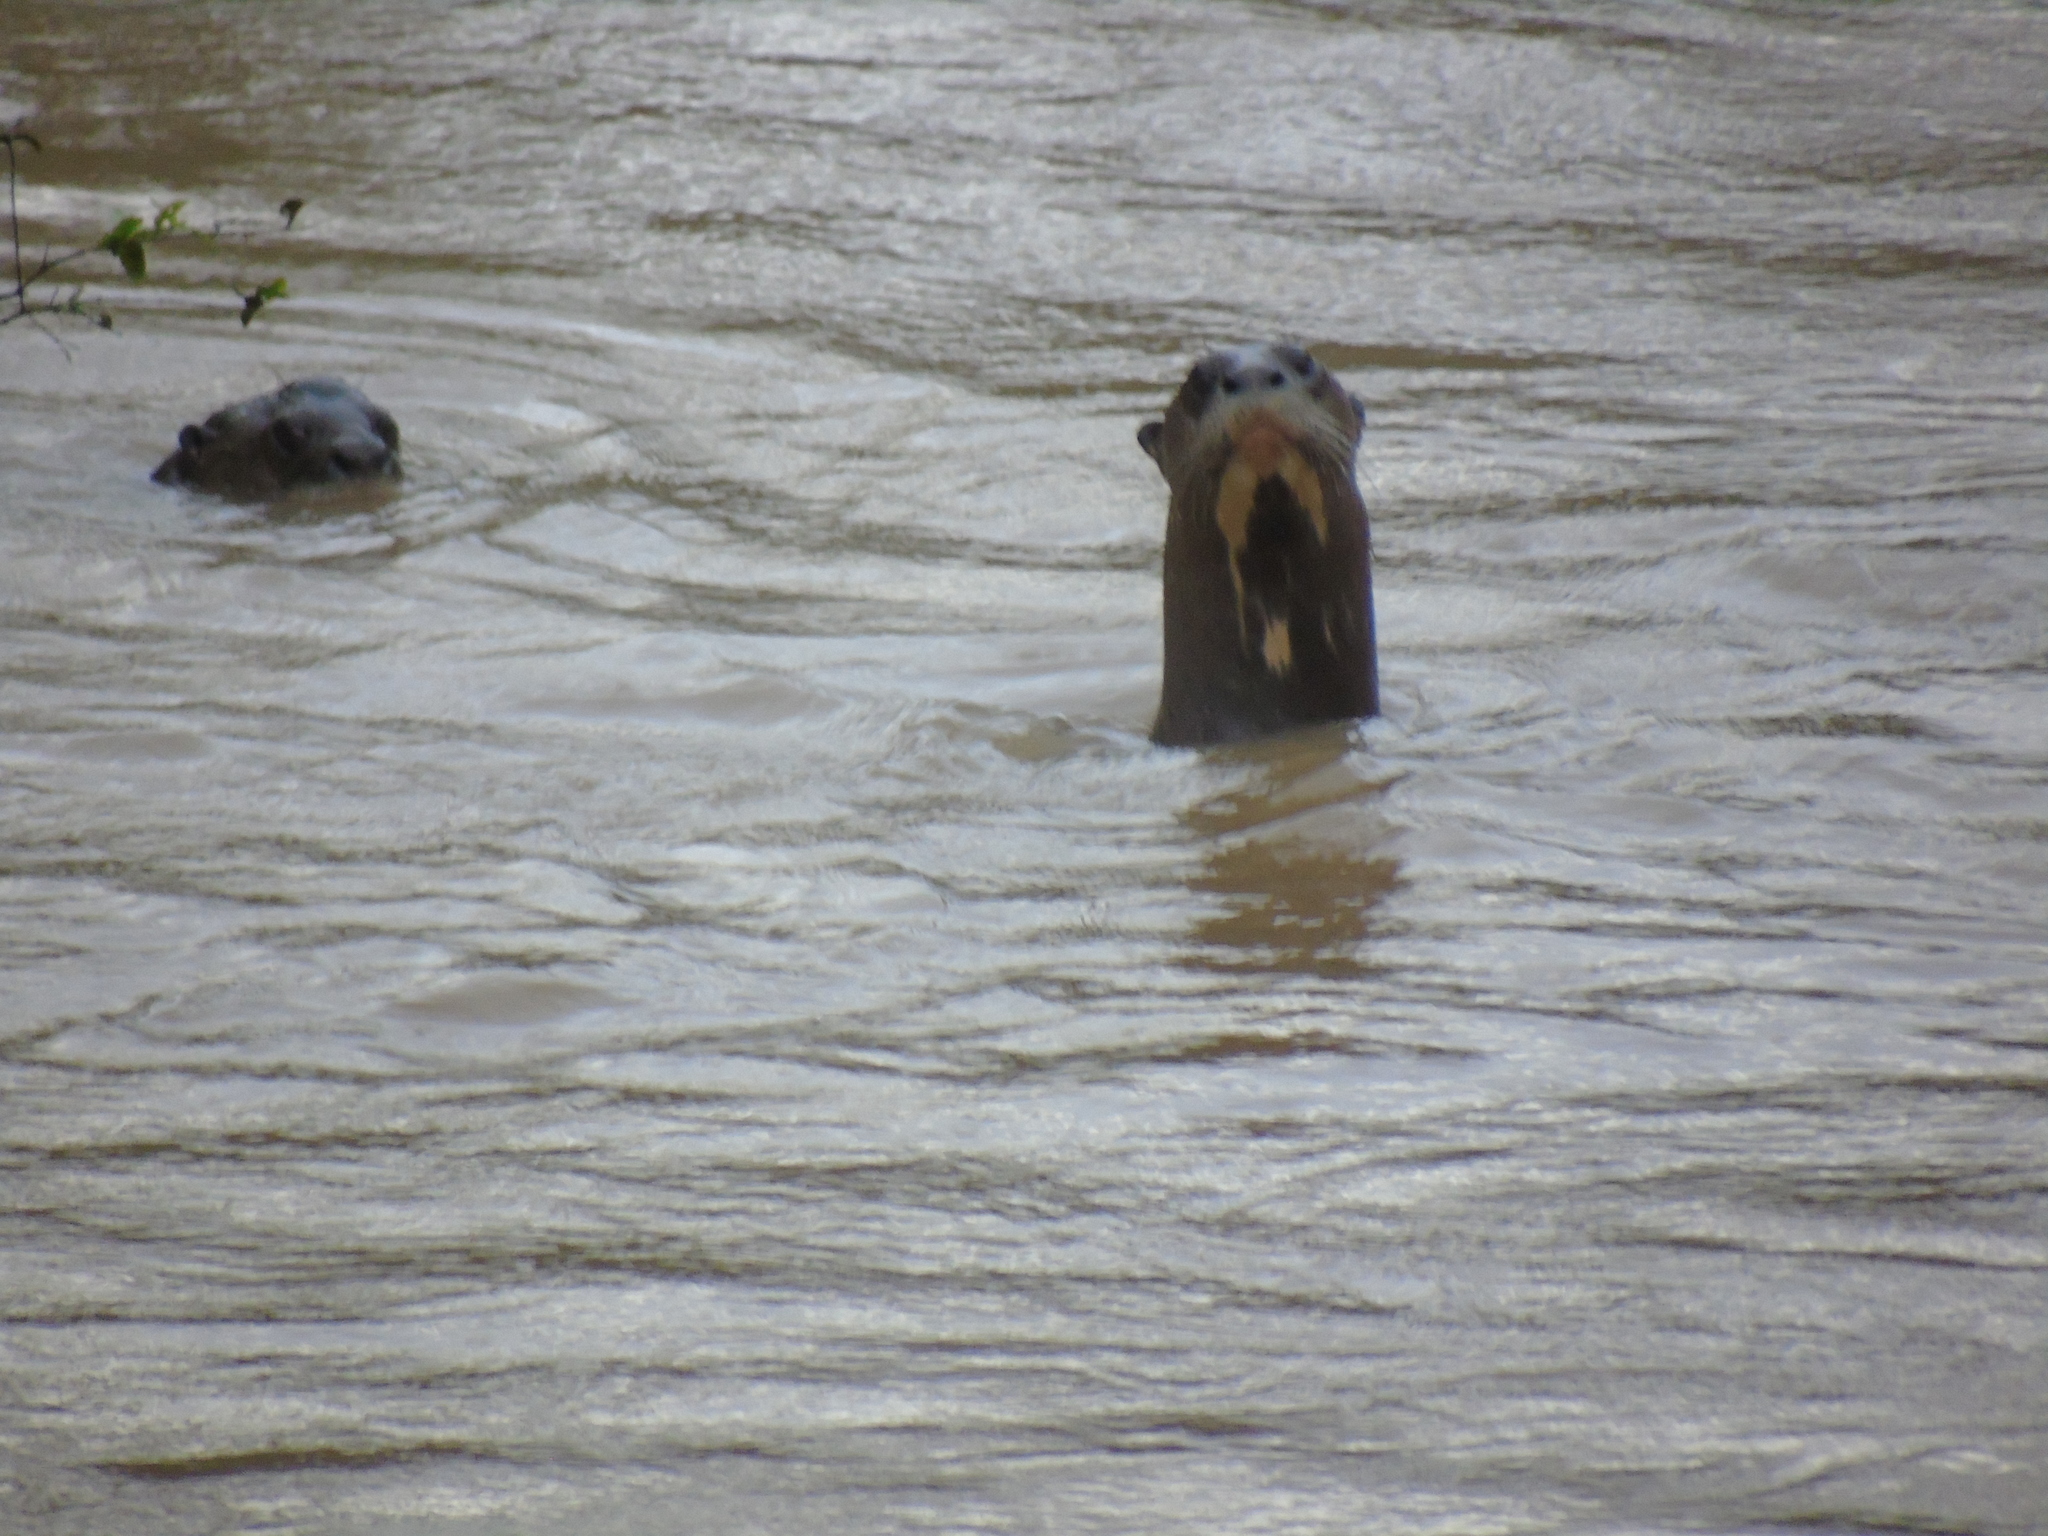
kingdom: Animalia
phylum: Chordata
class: Mammalia
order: Carnivora
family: Mustelidae
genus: Pteronura
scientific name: Pteronura brasiliensis
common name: Giant otter
